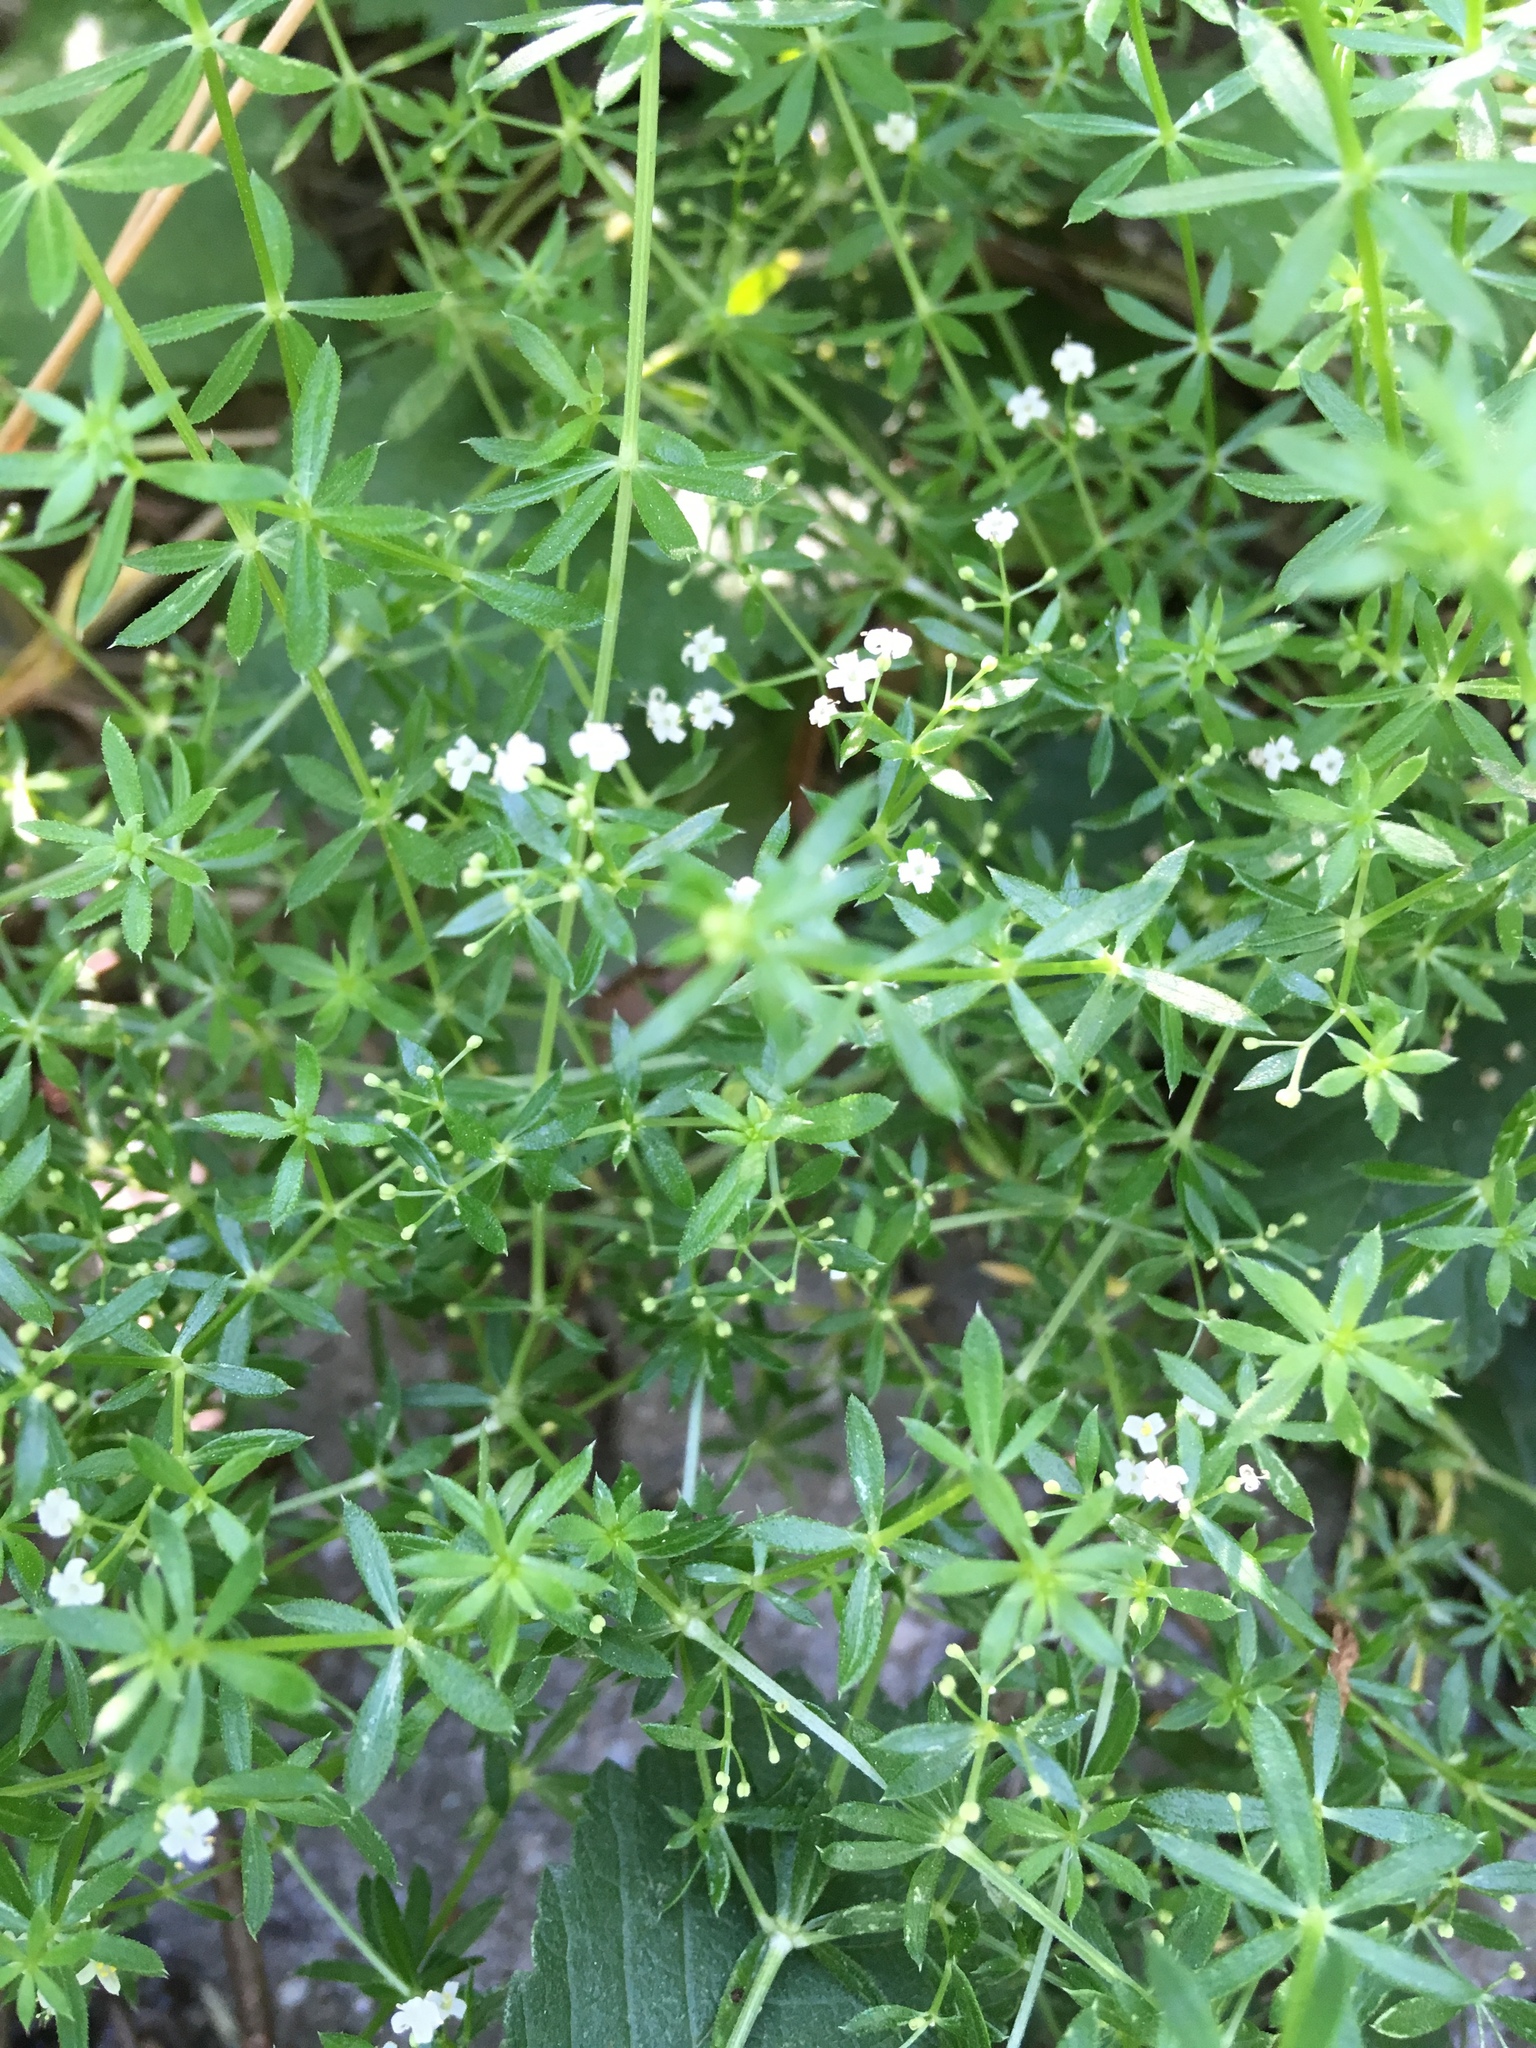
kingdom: Plantae
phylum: Tracheophyta
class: Magnoliopsida
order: Gentianales
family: Rubiaceae
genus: Galium
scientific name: Galium aparine
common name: Cleavers
